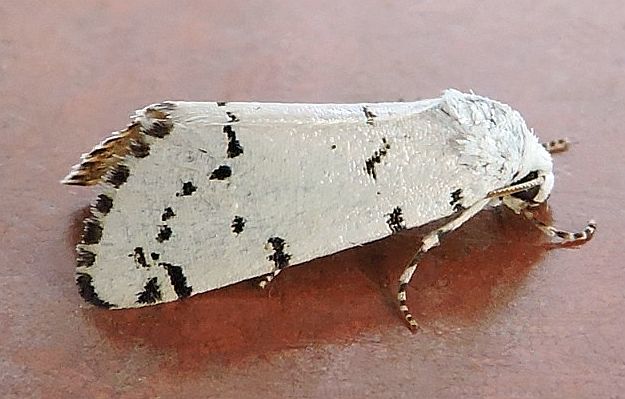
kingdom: Animalia
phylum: Arthropoda
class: Insecta
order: Lepidoptera
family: Noctuidae
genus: Grotella
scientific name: Grotella binda
